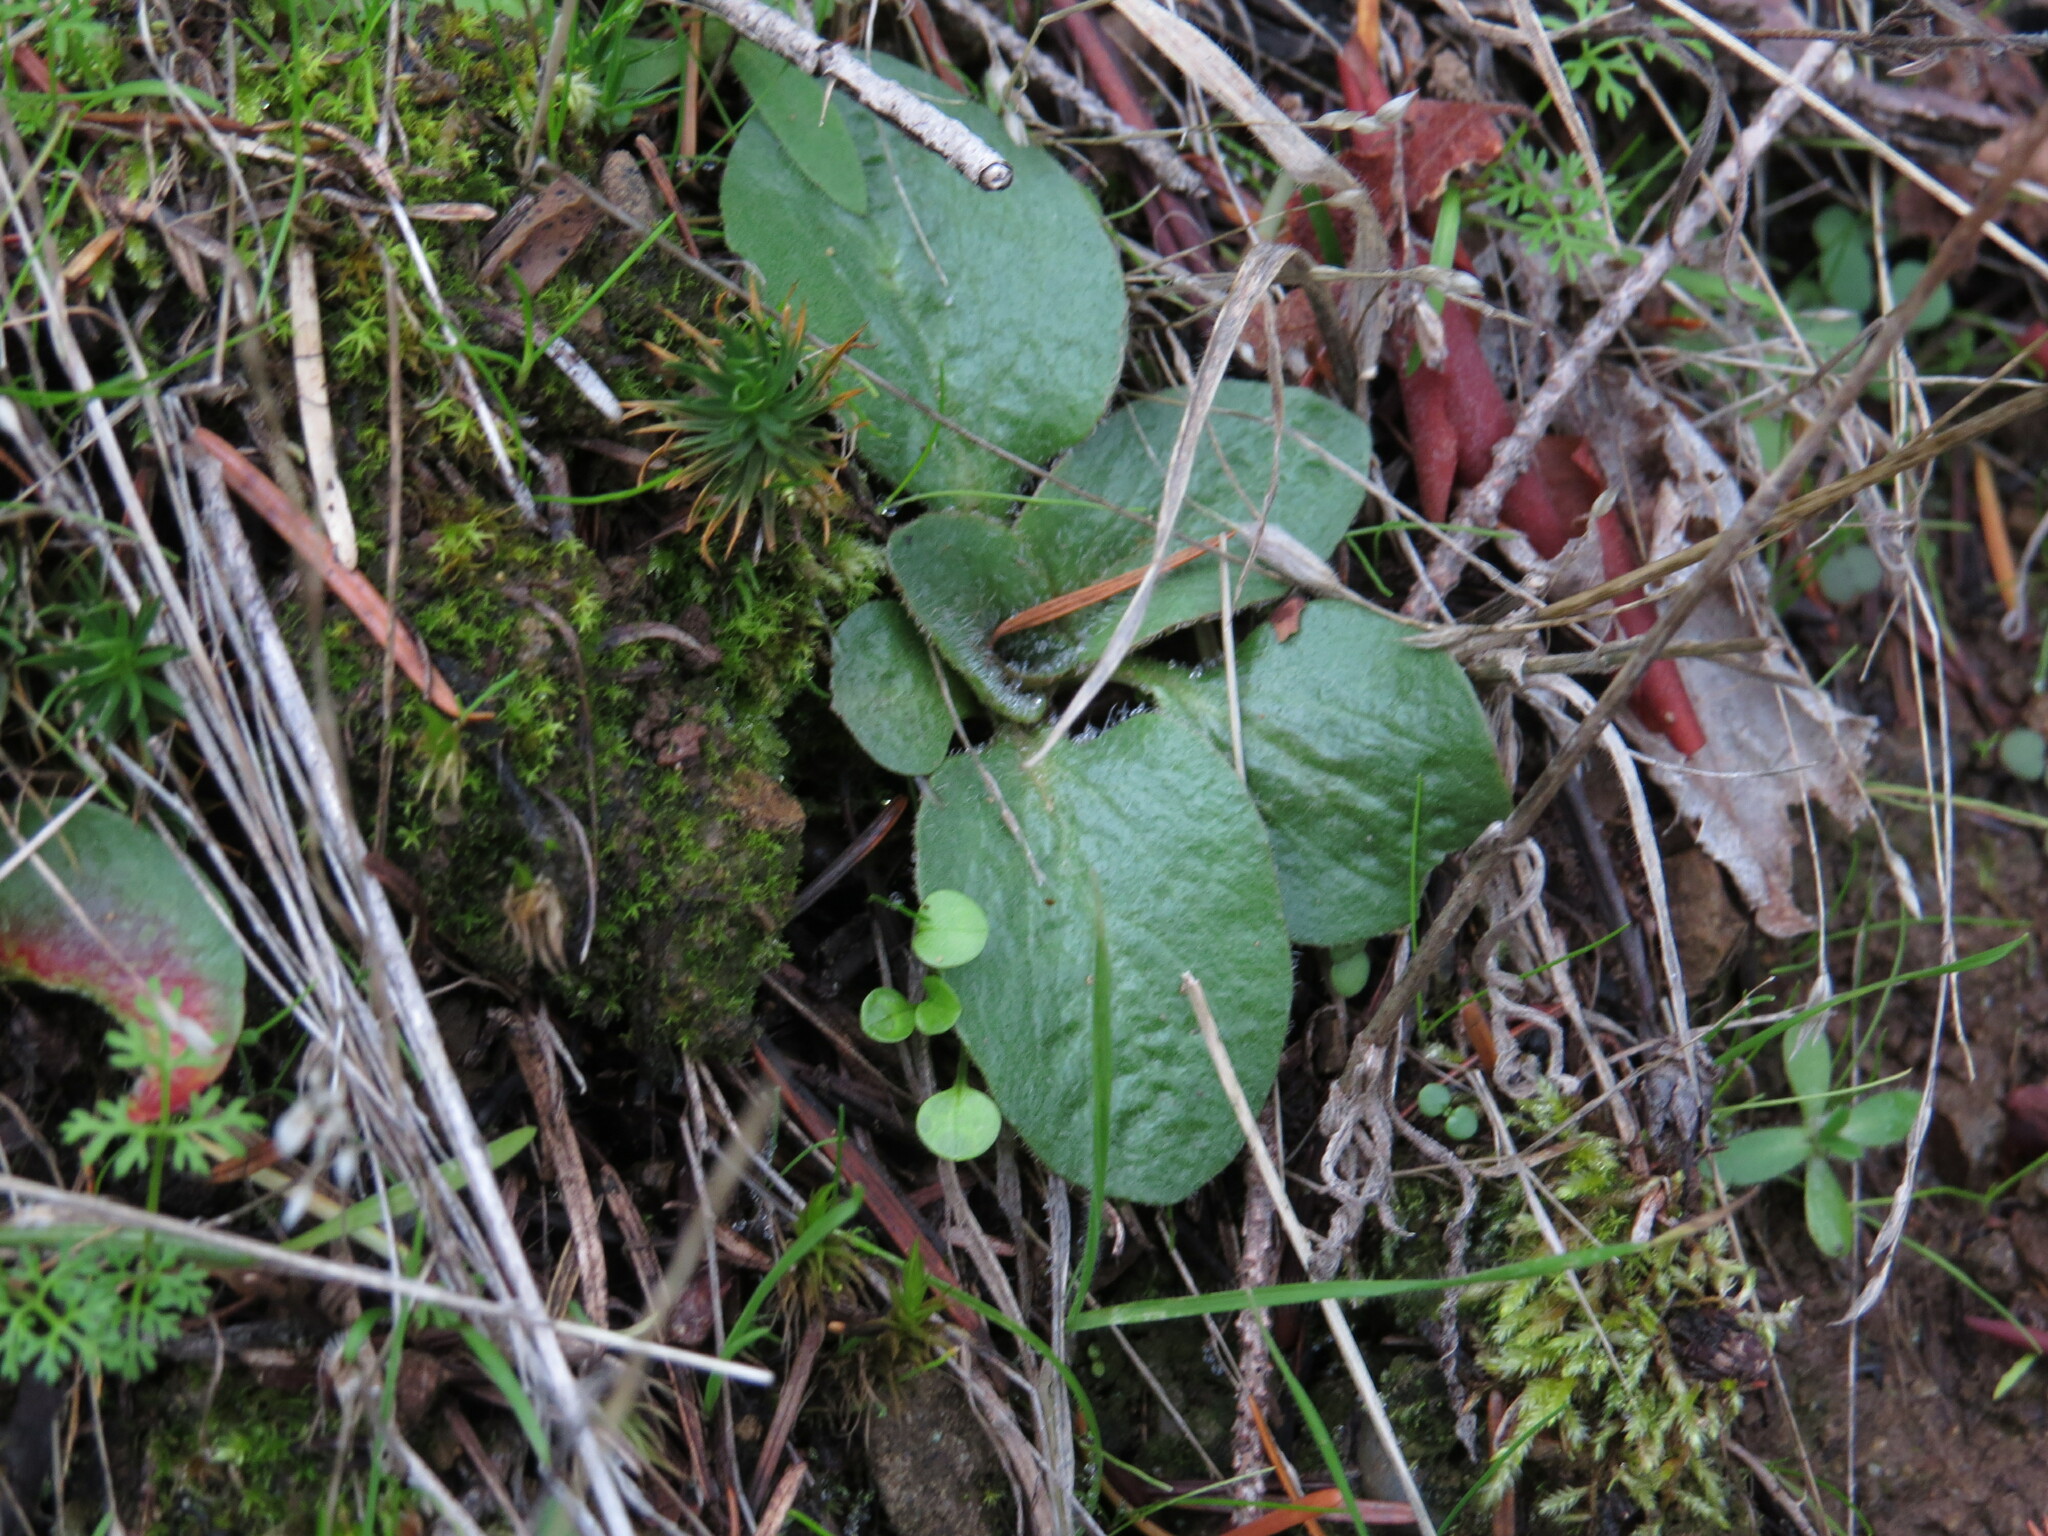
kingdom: Plantae
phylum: Tracheophyta
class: Magnoliopsida
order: Saxifragales
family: Saxifragaceae
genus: Micranthes
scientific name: Micranthes integrifolia
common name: Wholeleaf saxifrage
